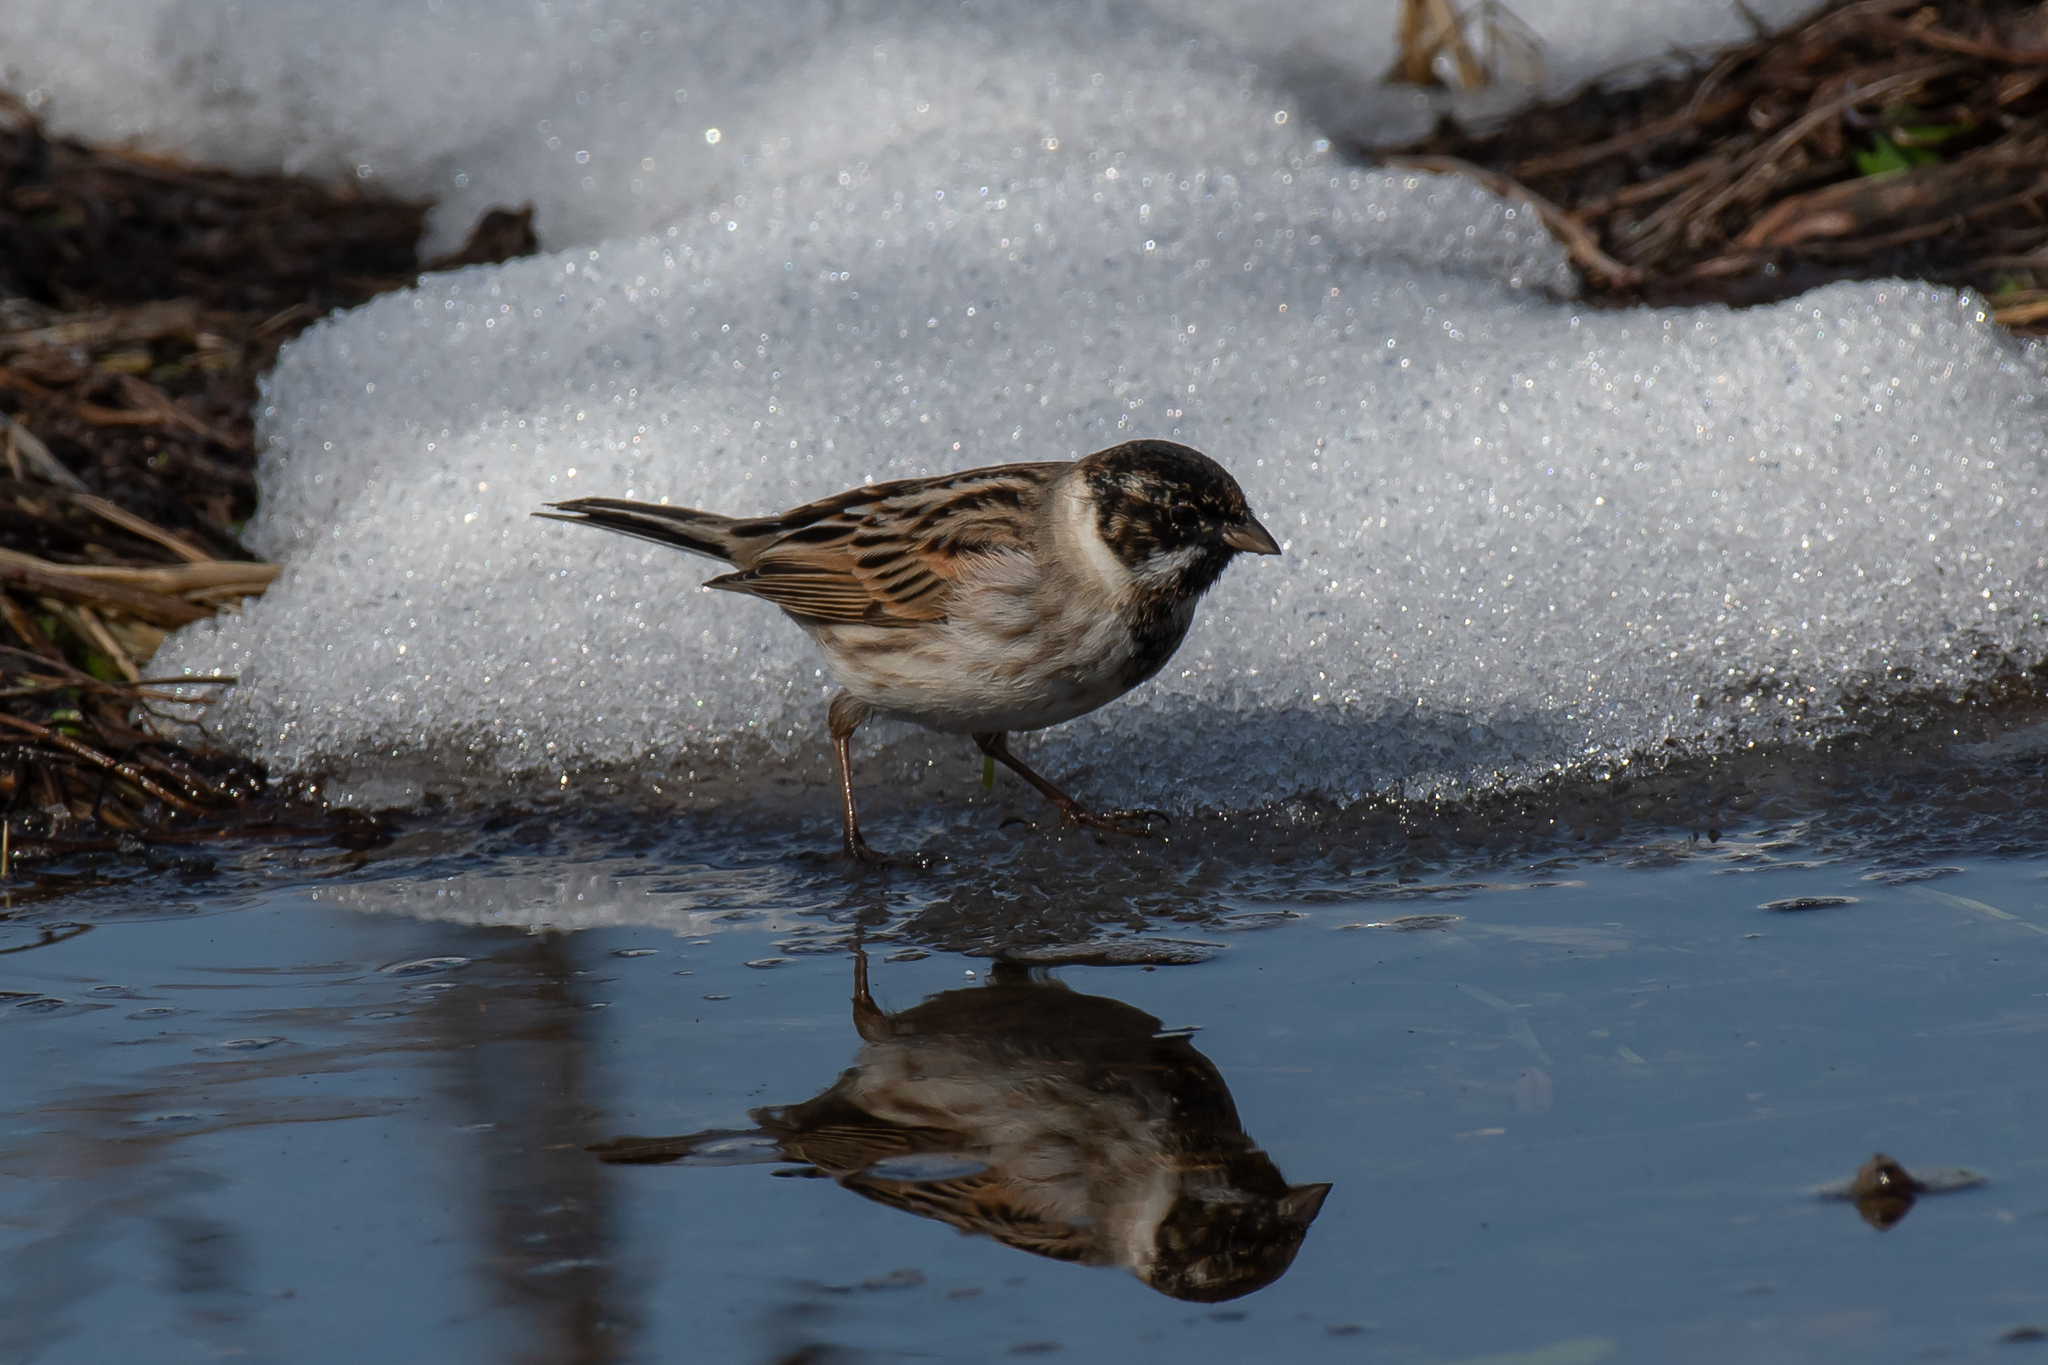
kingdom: Animalia
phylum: Chordata
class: Aves
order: Passeriformes
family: Emberizidae
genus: Emberiza
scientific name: Emberiza schoeniclus
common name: Reed bunting
